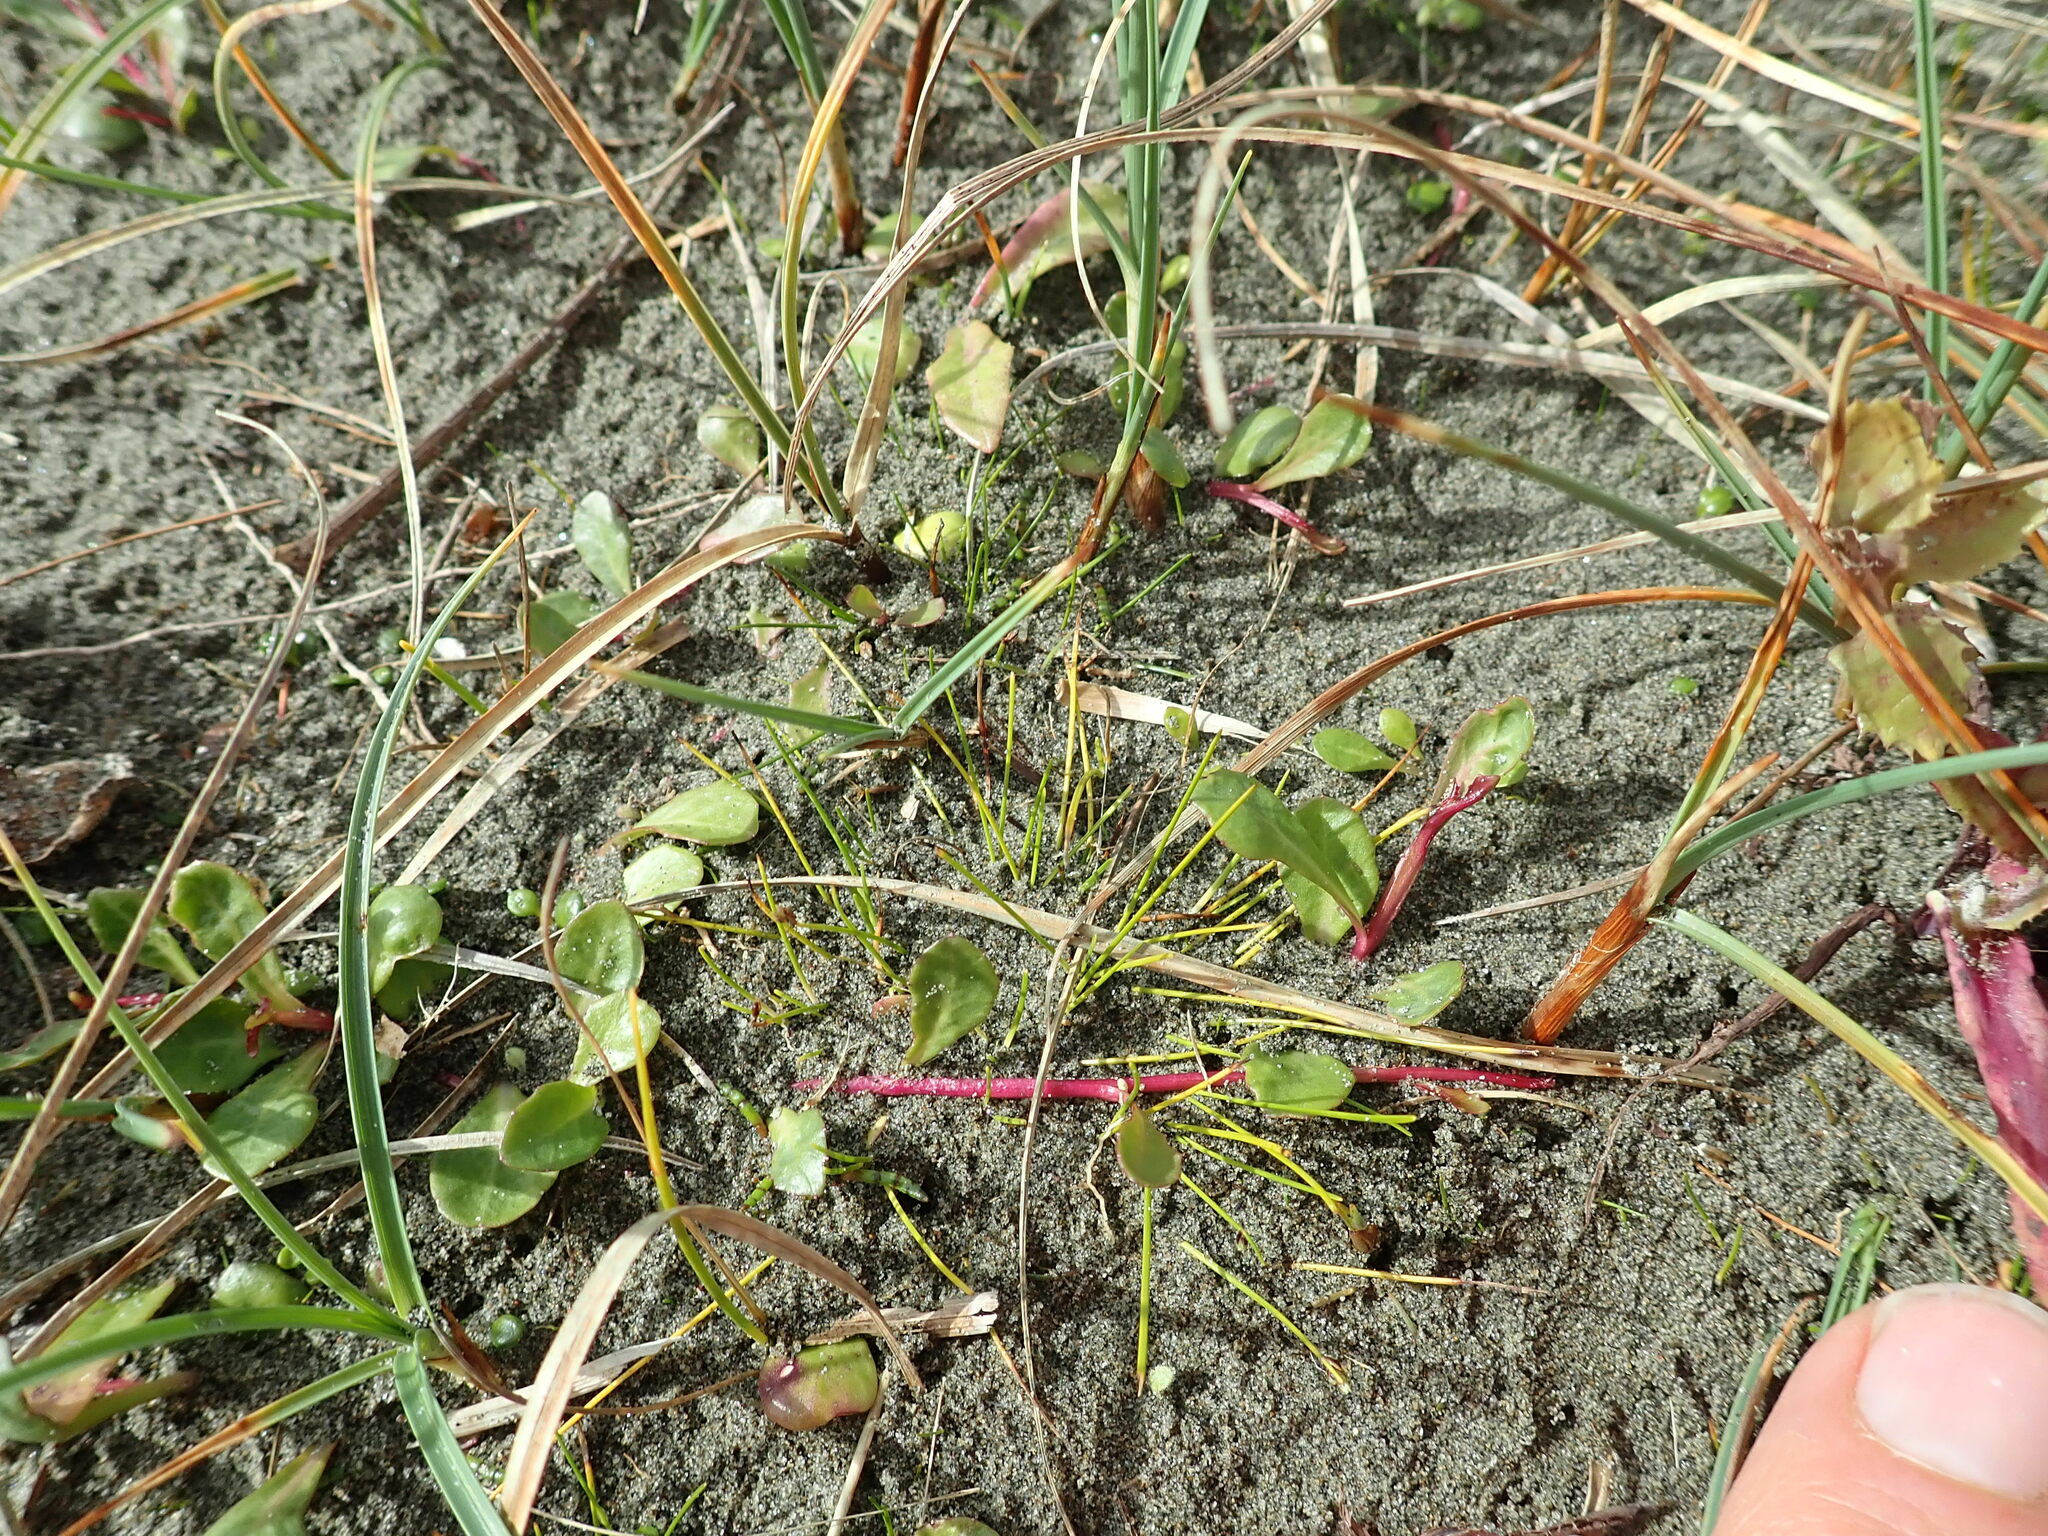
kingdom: Plantae
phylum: Tracheophyta
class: Magnoliopsida
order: Asterales
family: Campanulaceae
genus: Lobelia
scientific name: Lobelia anceps
